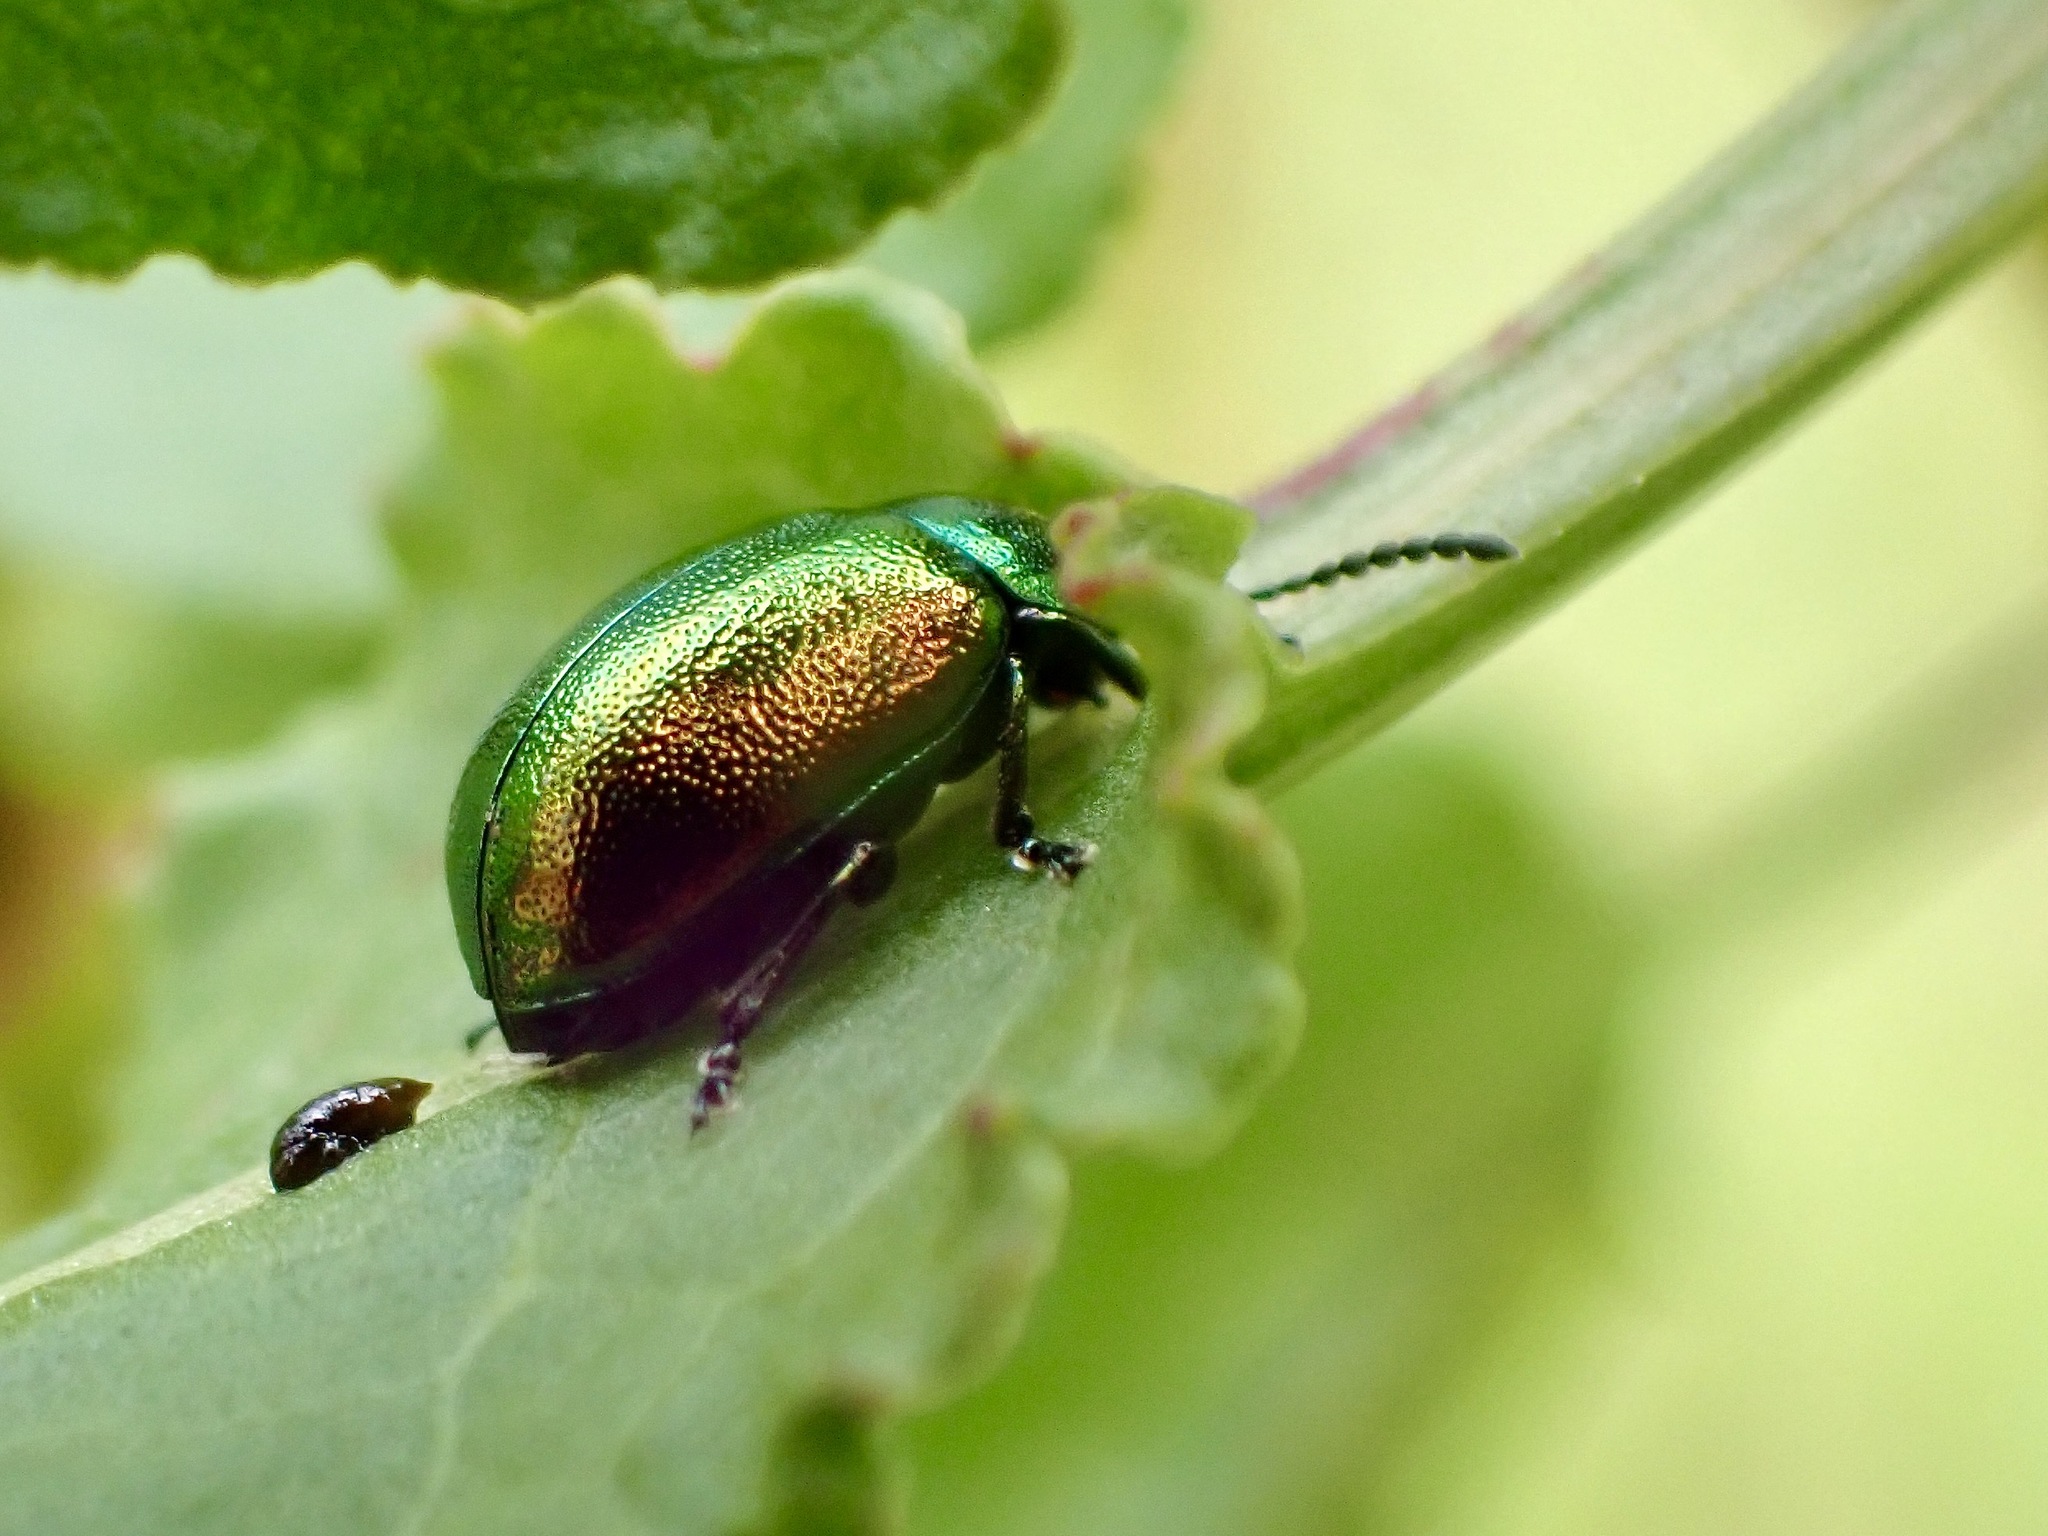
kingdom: Animalia
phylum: Arthropoda
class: Insecta
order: Coleoptera
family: Chrysomelidae
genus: Gastrophysa
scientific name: Gastrophysa viridula
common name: Green dock beetle
